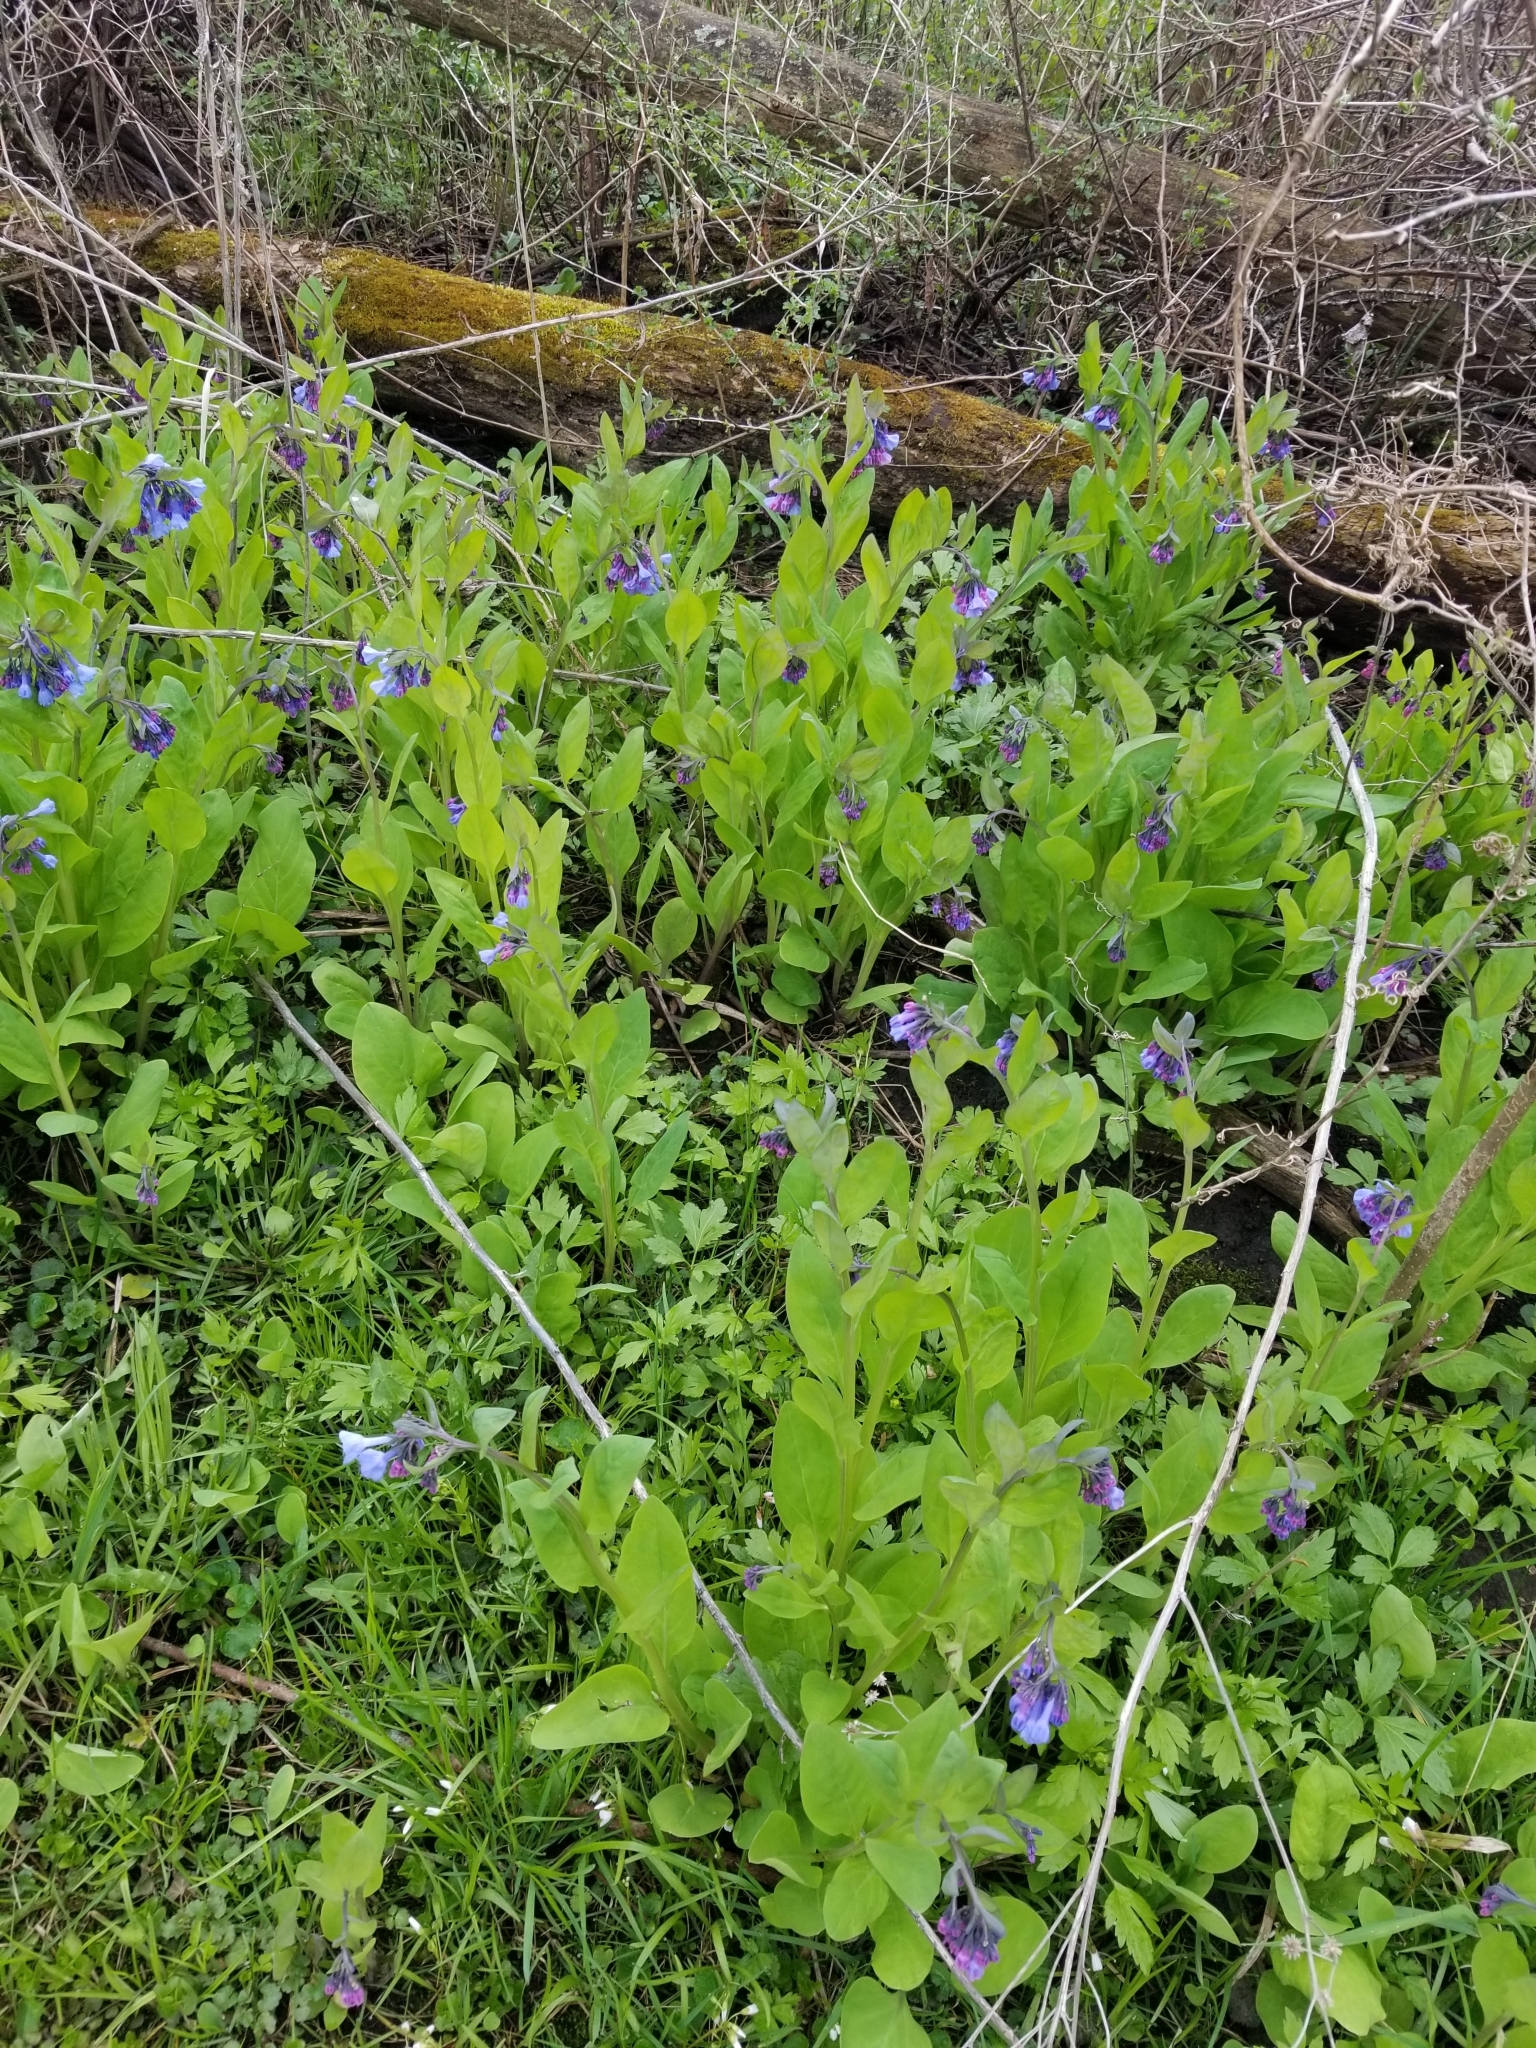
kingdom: Plantae
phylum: Tracheophyta
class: Magnoliopsida
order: Boraginales
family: Boraginaceae
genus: Mertensia
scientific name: Mertensia virginica
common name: Virginia bluebells
